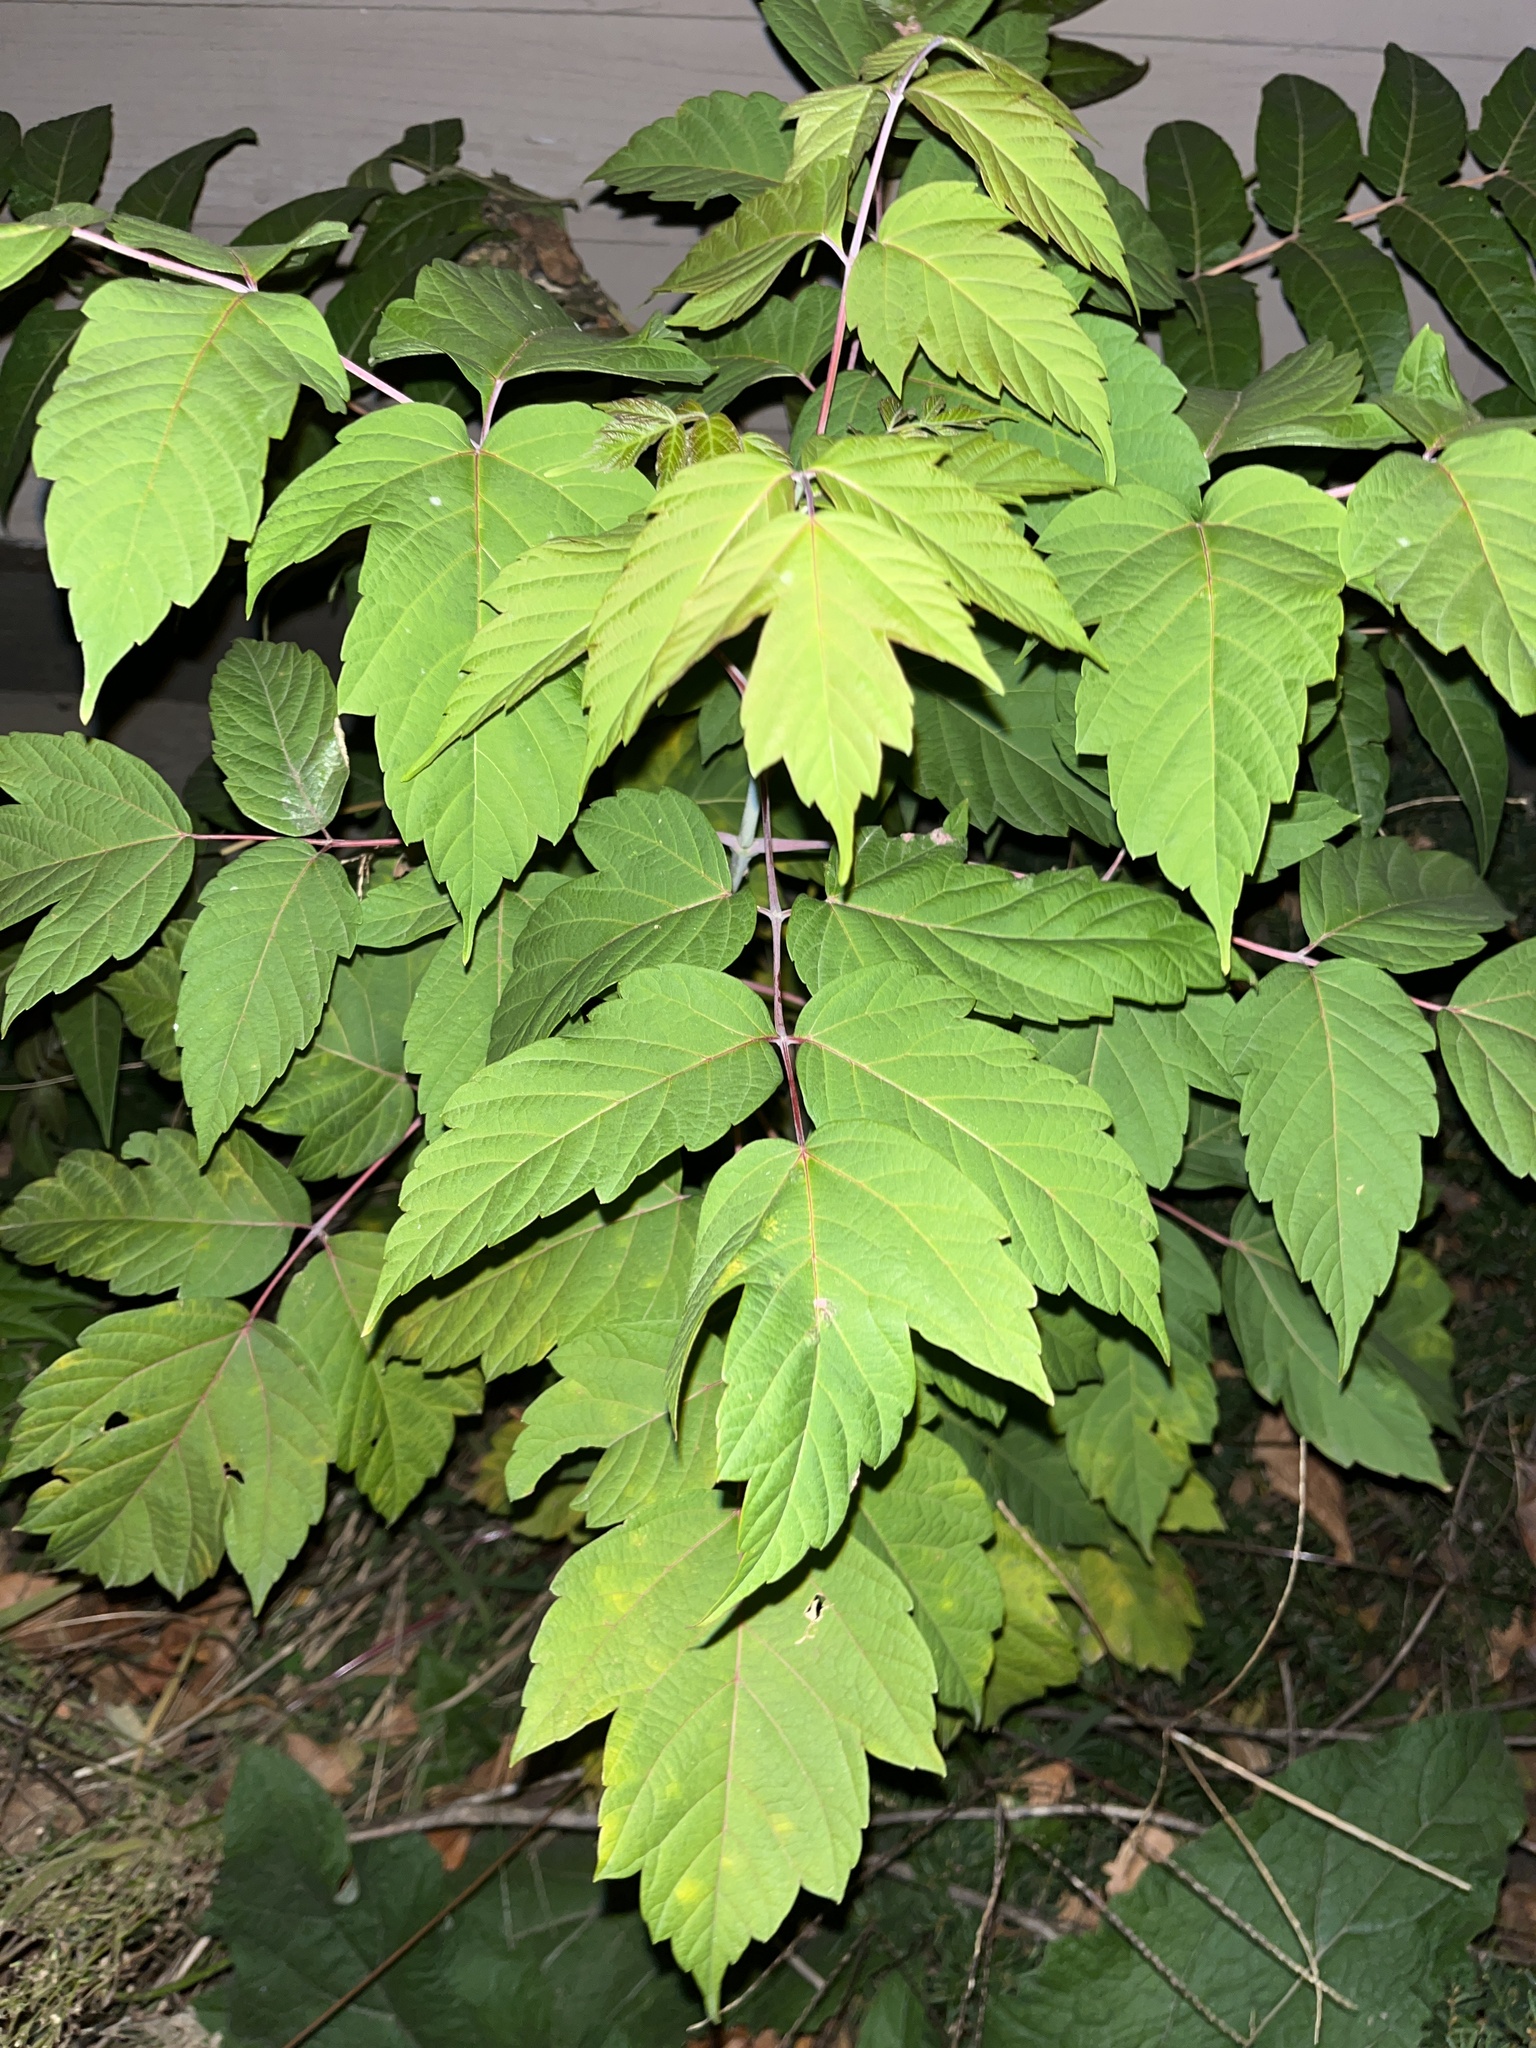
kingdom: Plantae
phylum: Tracheophyta
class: Magnoliopsida
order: Sapindales
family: Sapindaceae
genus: Acer
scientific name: Acer negundo
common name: Ashleaf maple
